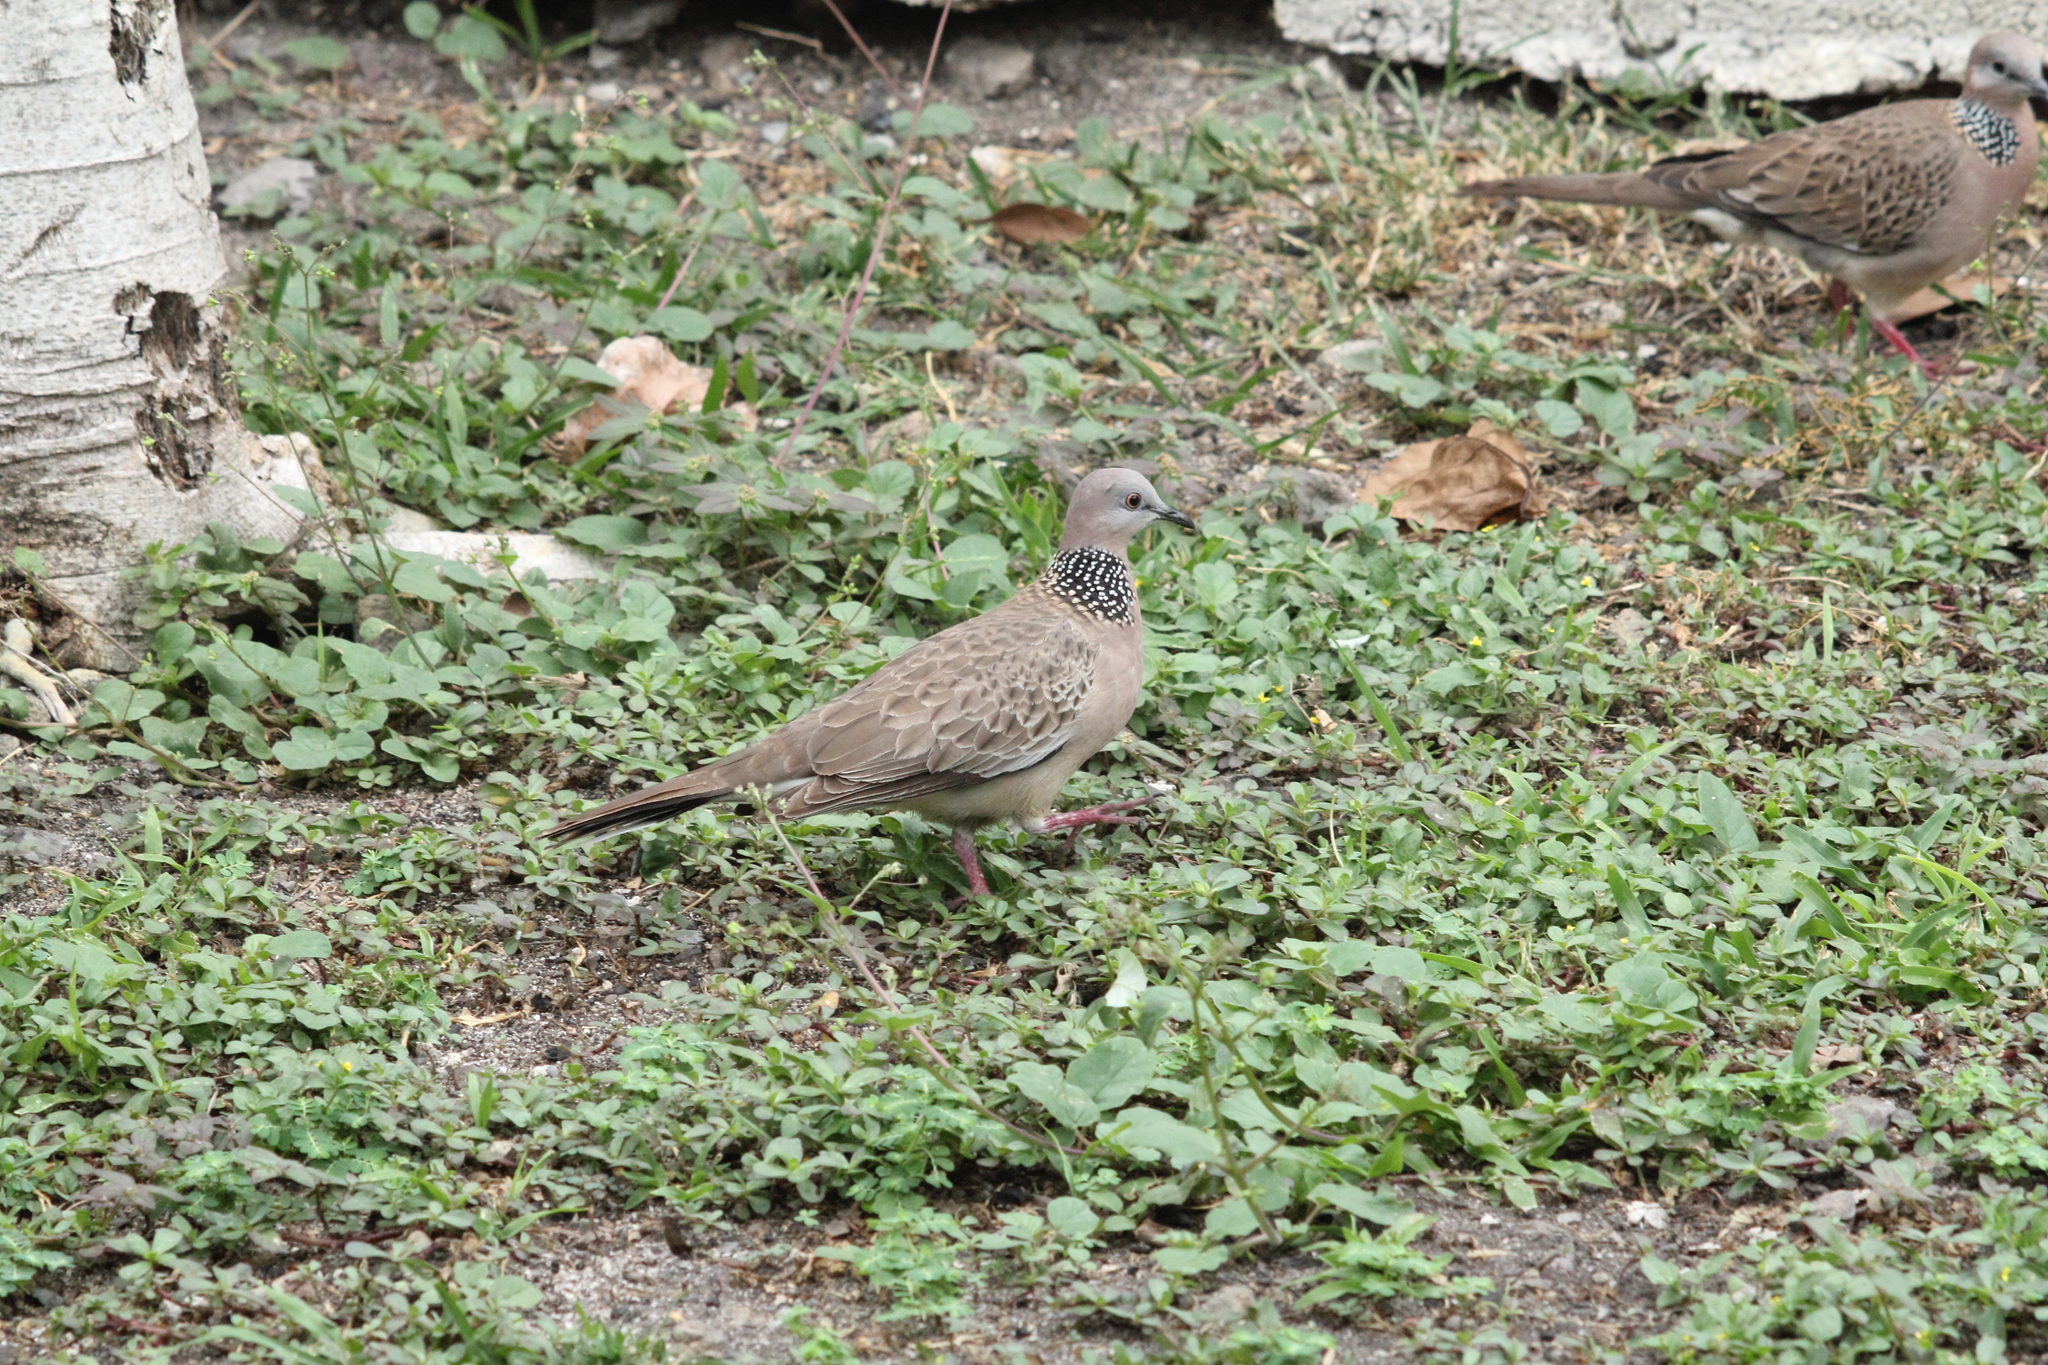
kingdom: Animalia
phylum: Chordata
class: Aves
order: Columbiformes
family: Columbidae
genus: Spilopelia
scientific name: Spilopelia chinensis
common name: Spotted dove
